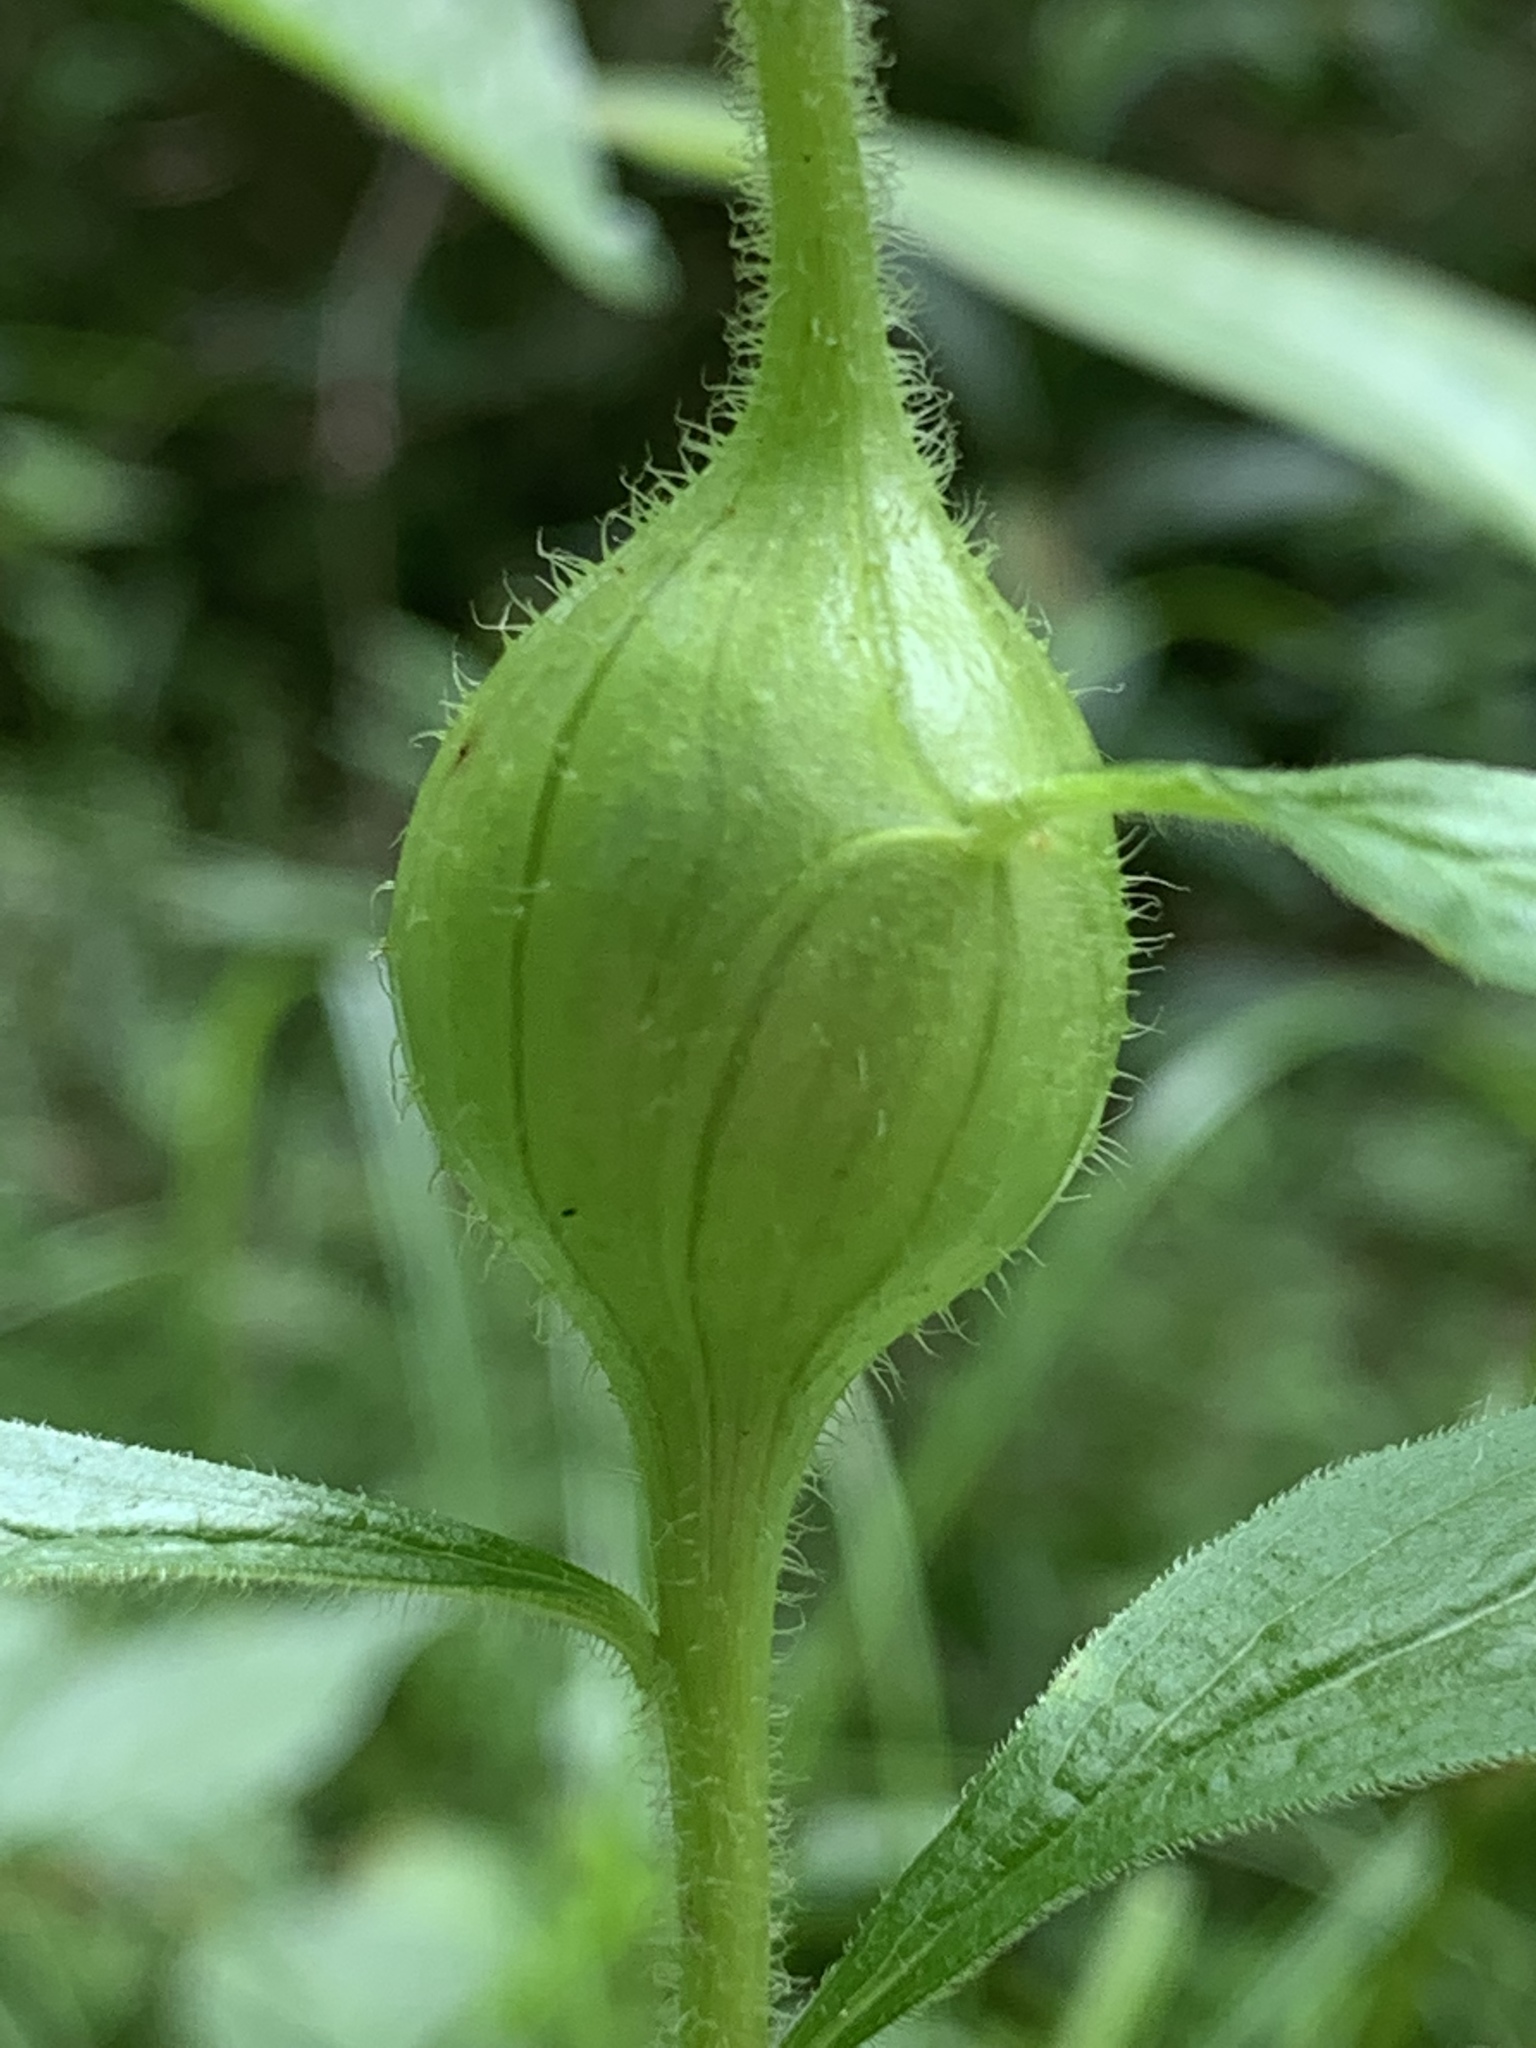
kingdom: Animalia
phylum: Arthropoda
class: Insecta
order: Diptera
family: Tephritidae
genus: Eurosta
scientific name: Eurosta solidaginis
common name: Goldenrod gall fly
